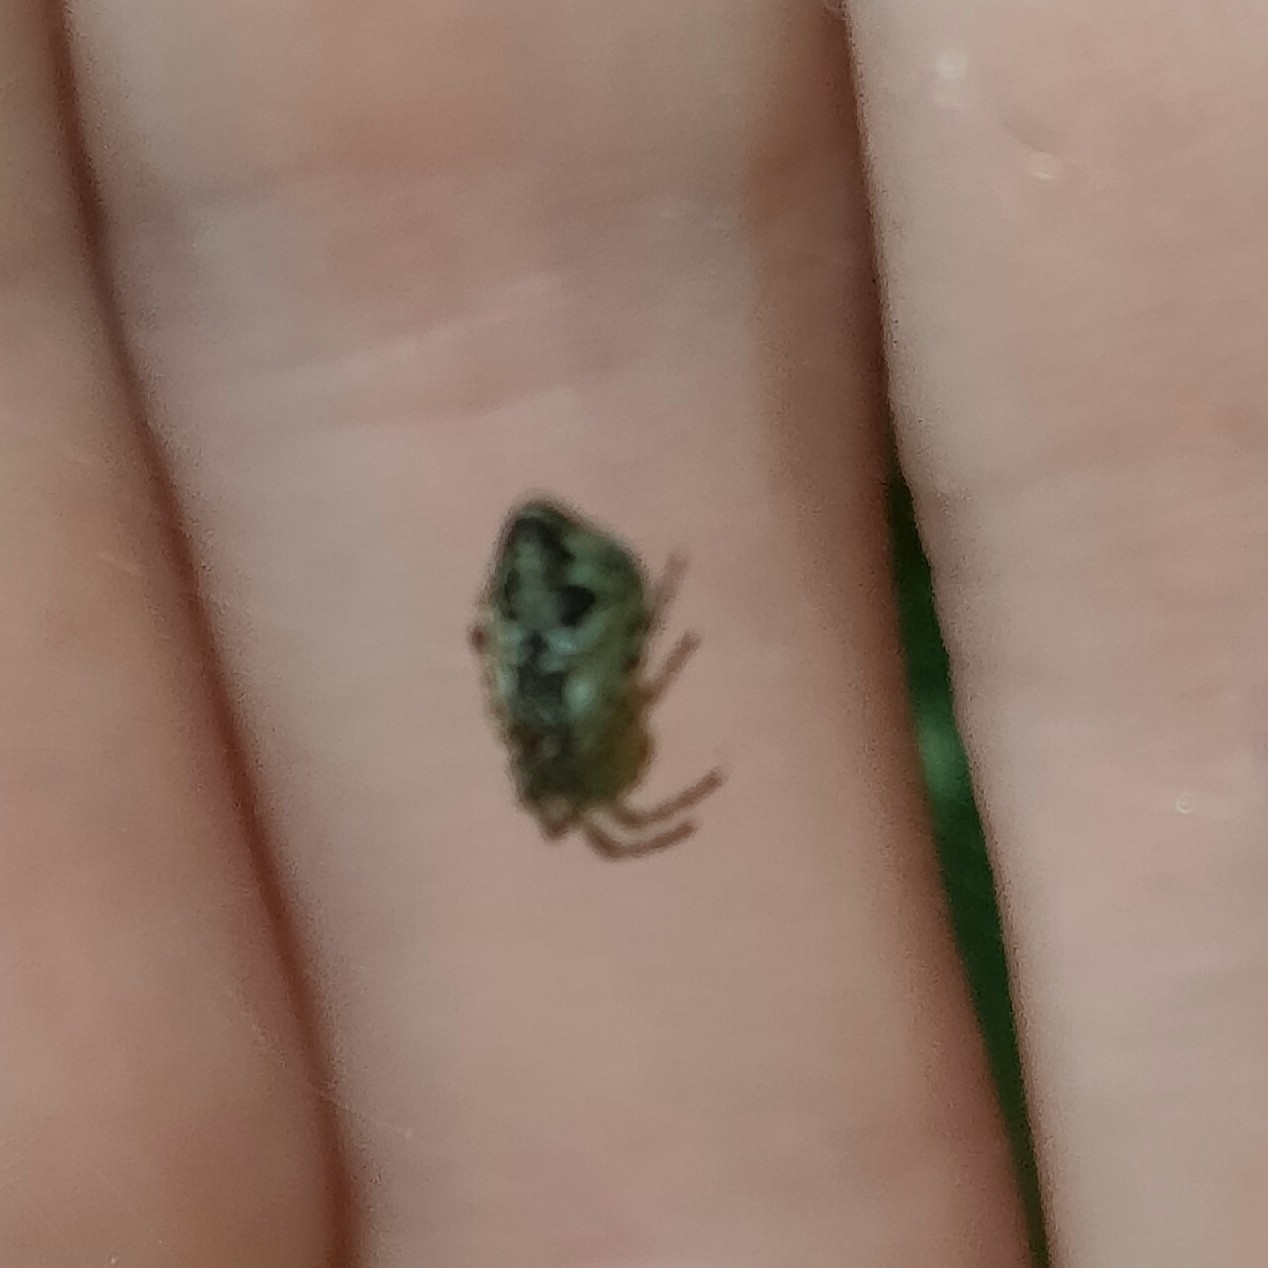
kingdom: Animalia
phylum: Arthropoda
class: Arachnida
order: Araneae
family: Araneidae
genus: Cyclosa
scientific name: Cyclosa conica
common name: Conical trashline orbweaver
